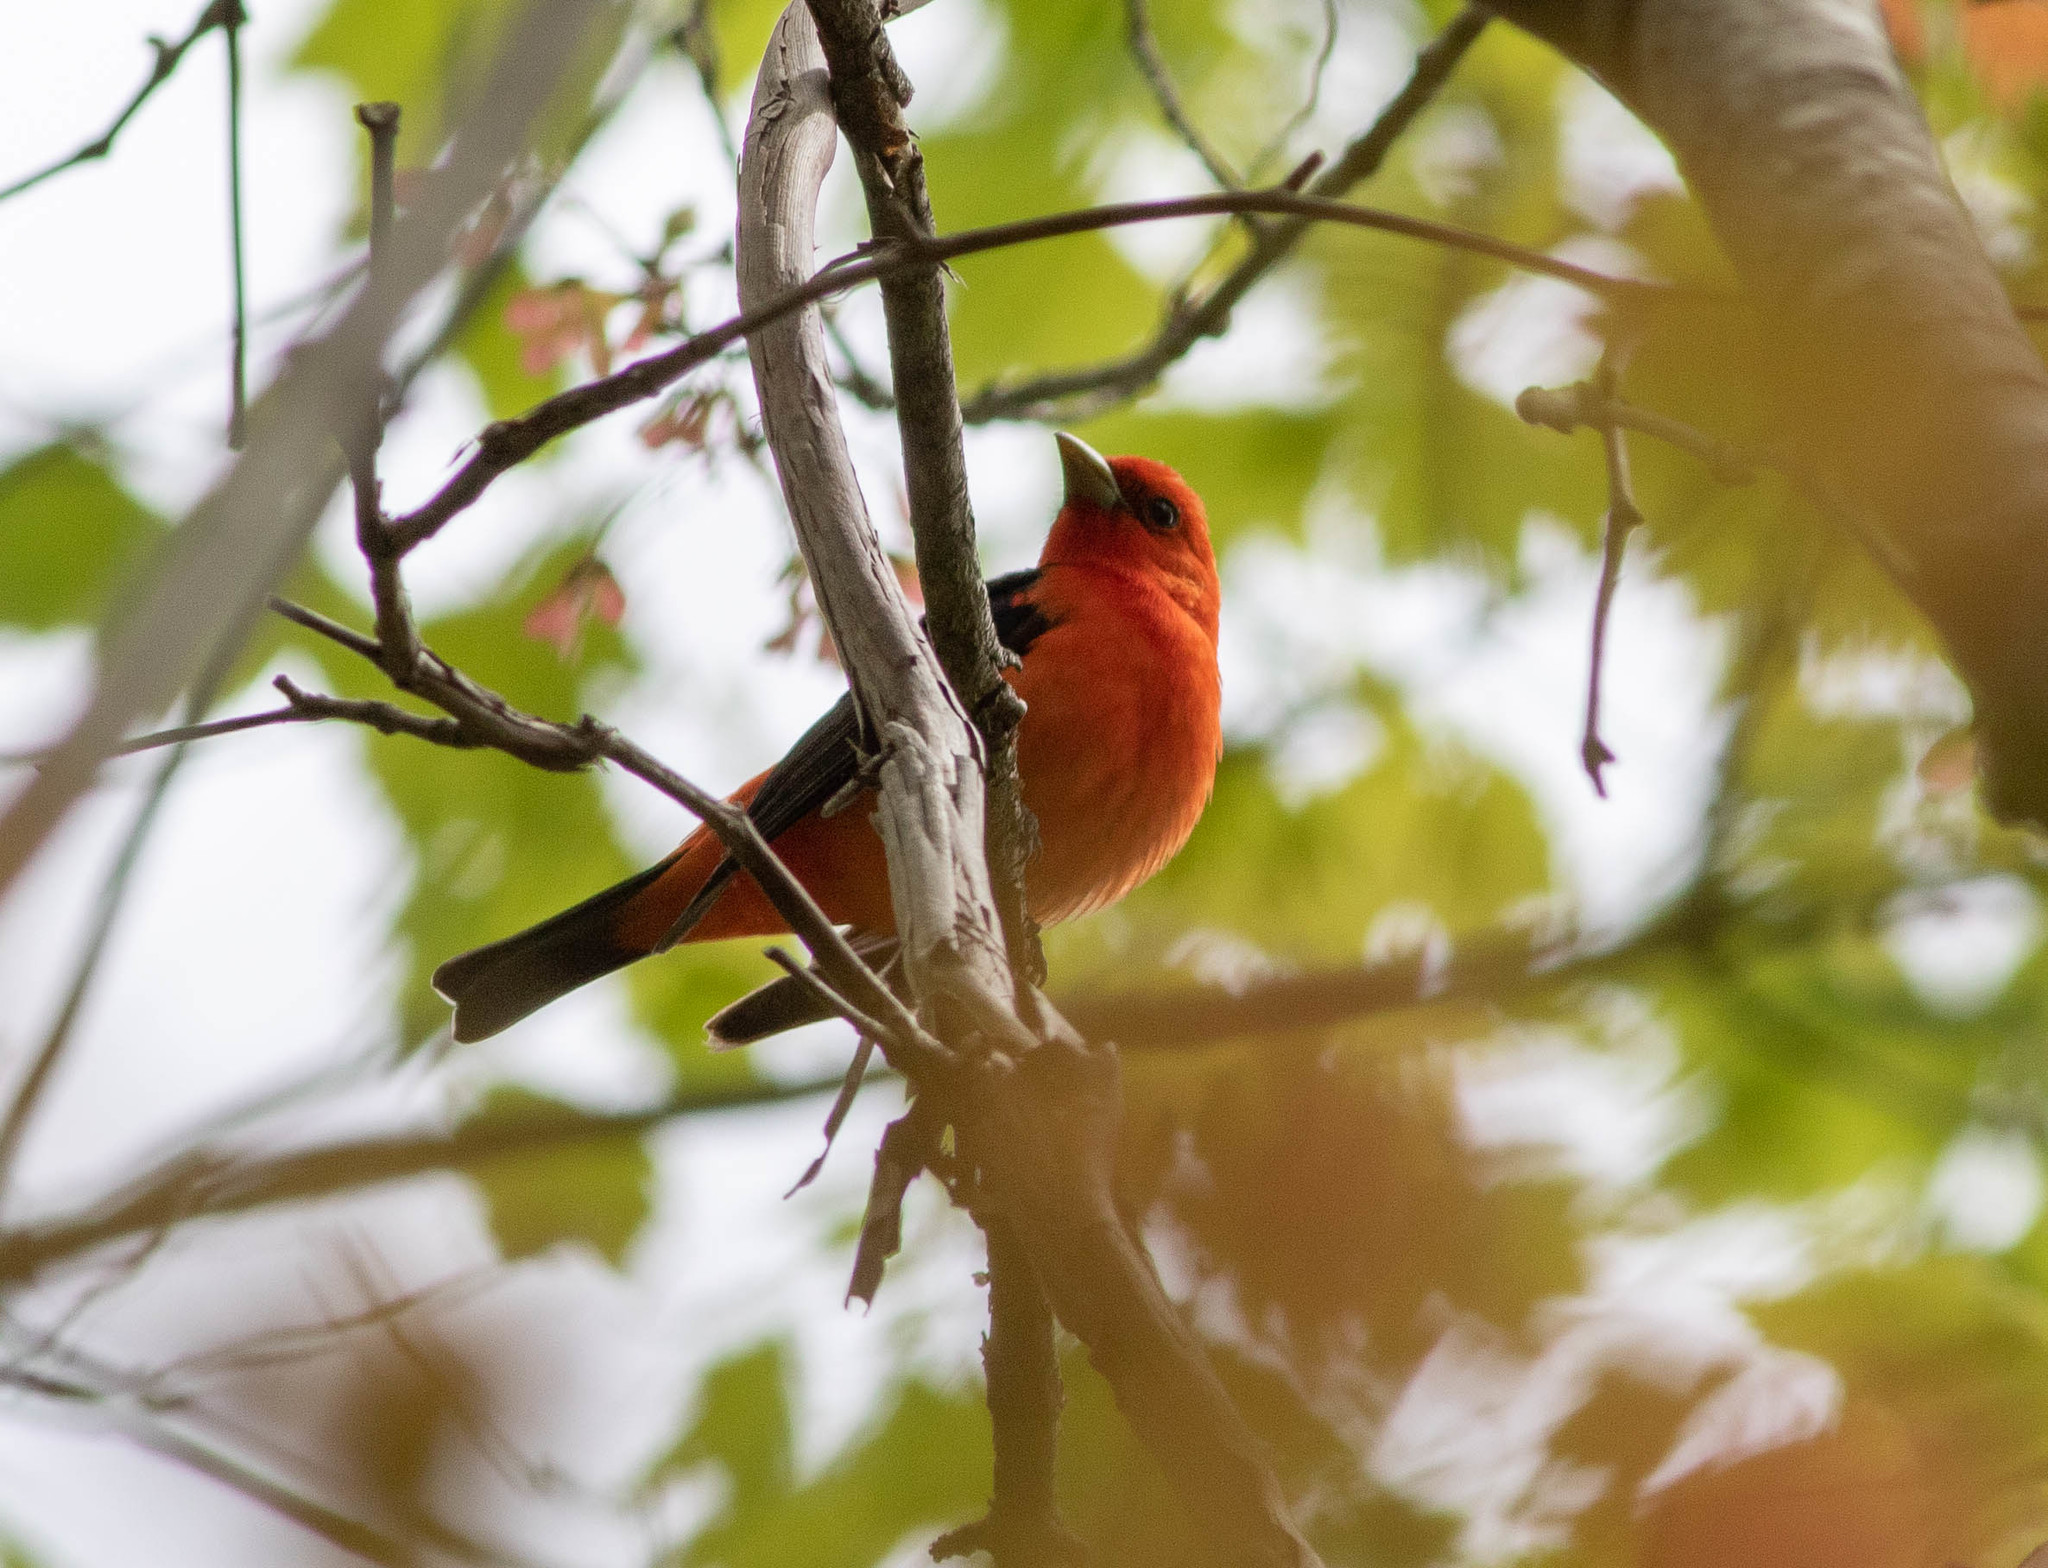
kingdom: Animalia
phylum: Chordata
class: Aves
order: Passeriformes
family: Cardinalidae
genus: Piranga
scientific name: Piranga olivacea
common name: Scarlet tanager
